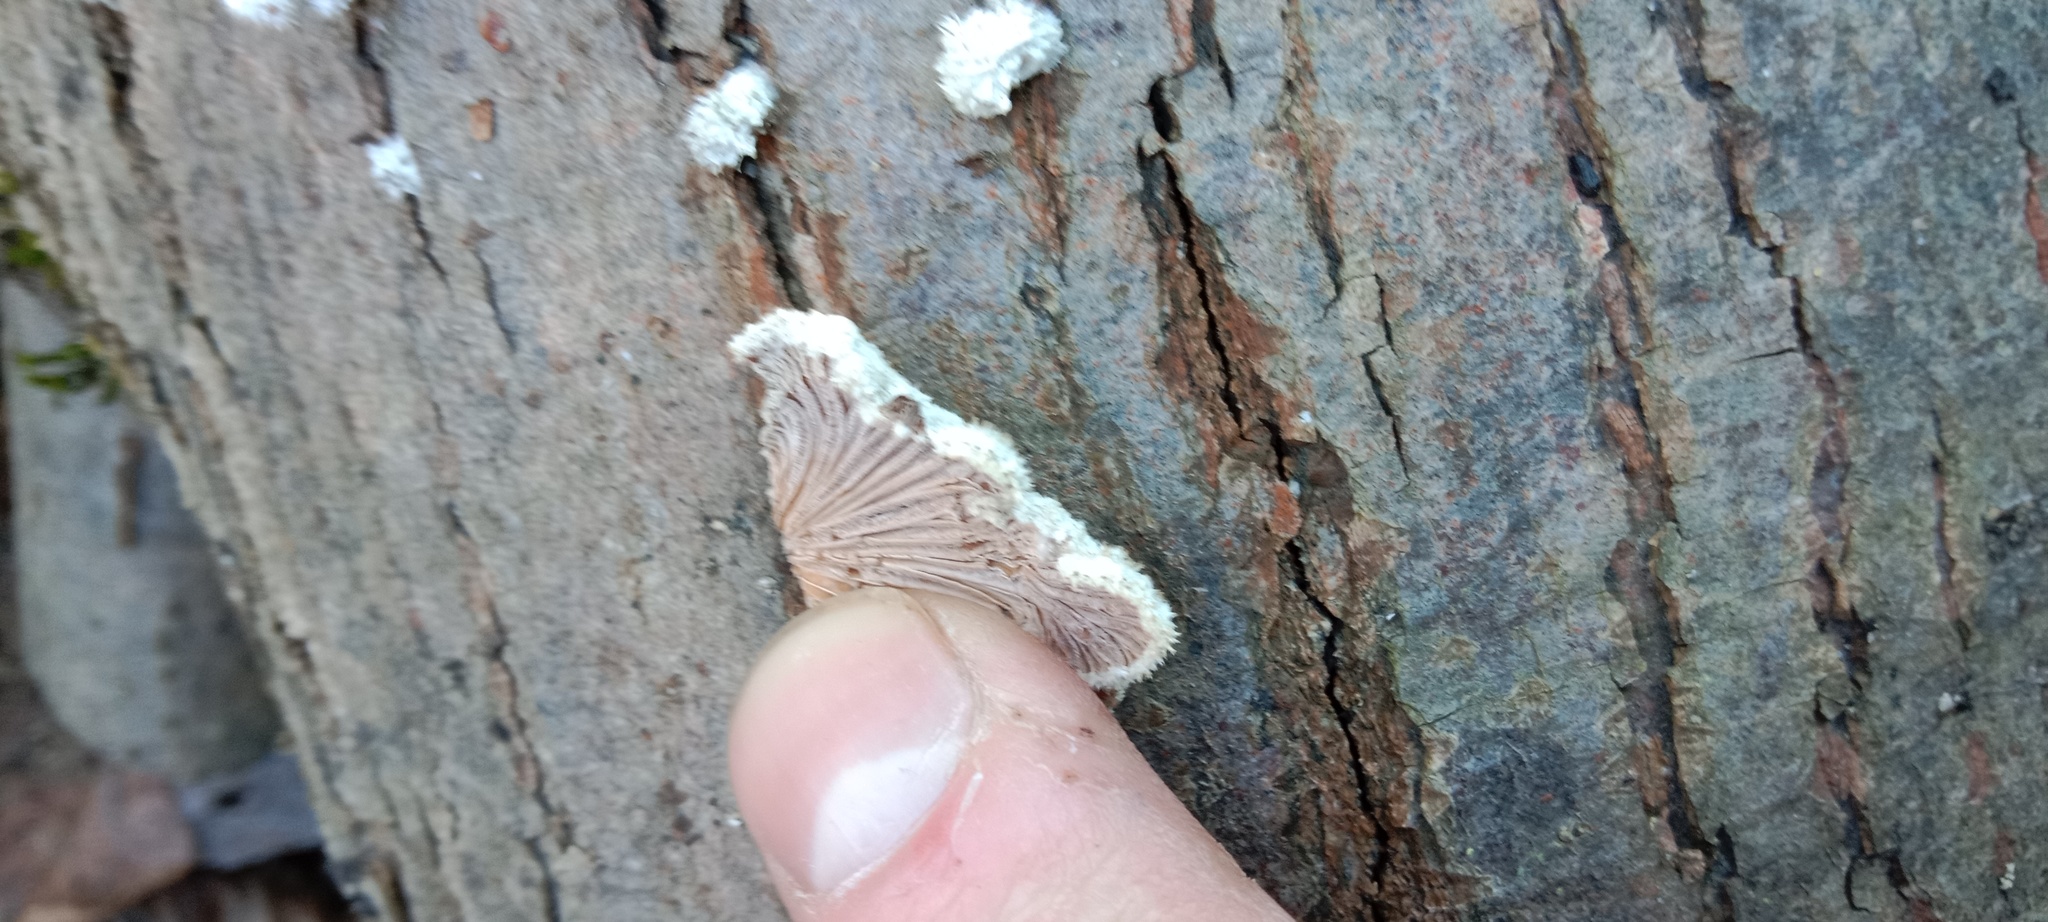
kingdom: Fungi
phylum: Basidiomycota
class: Agaricomycetes
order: Agaricales
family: Schizophyllaceae
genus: Schizophyllum
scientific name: Schizophyllum commune
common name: Common porecrust
